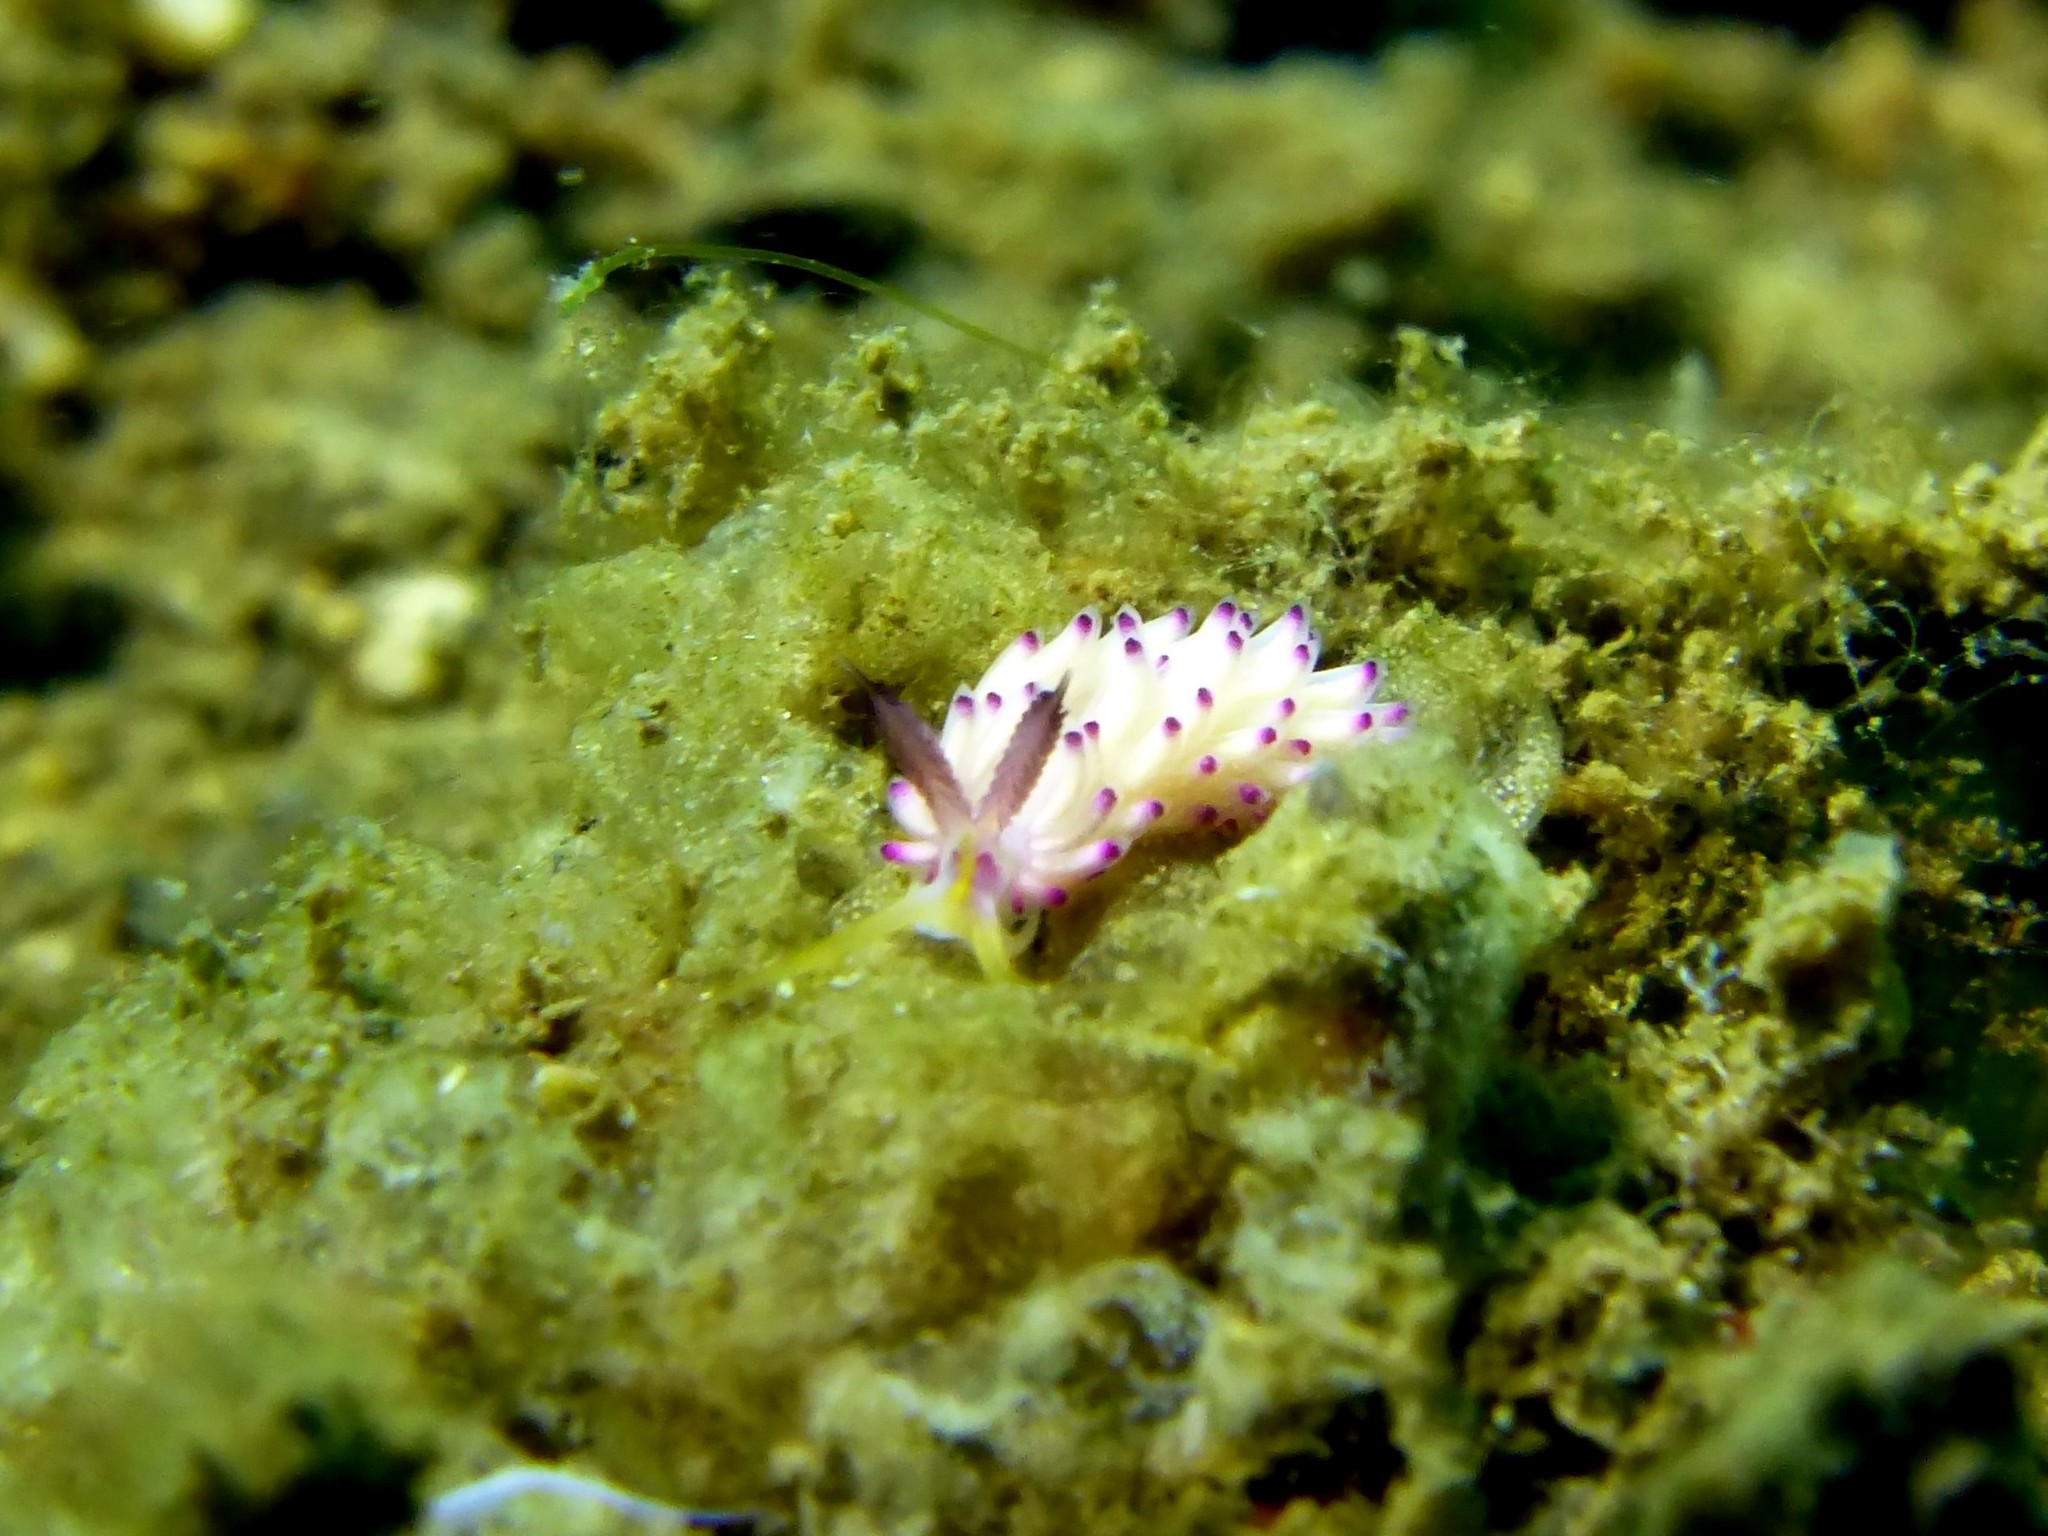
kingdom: Animalia
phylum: Mollusca
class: Gastropoda
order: Nudibranchia
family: Facelinidae
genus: Favorinus
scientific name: Favorinus mirabilis
